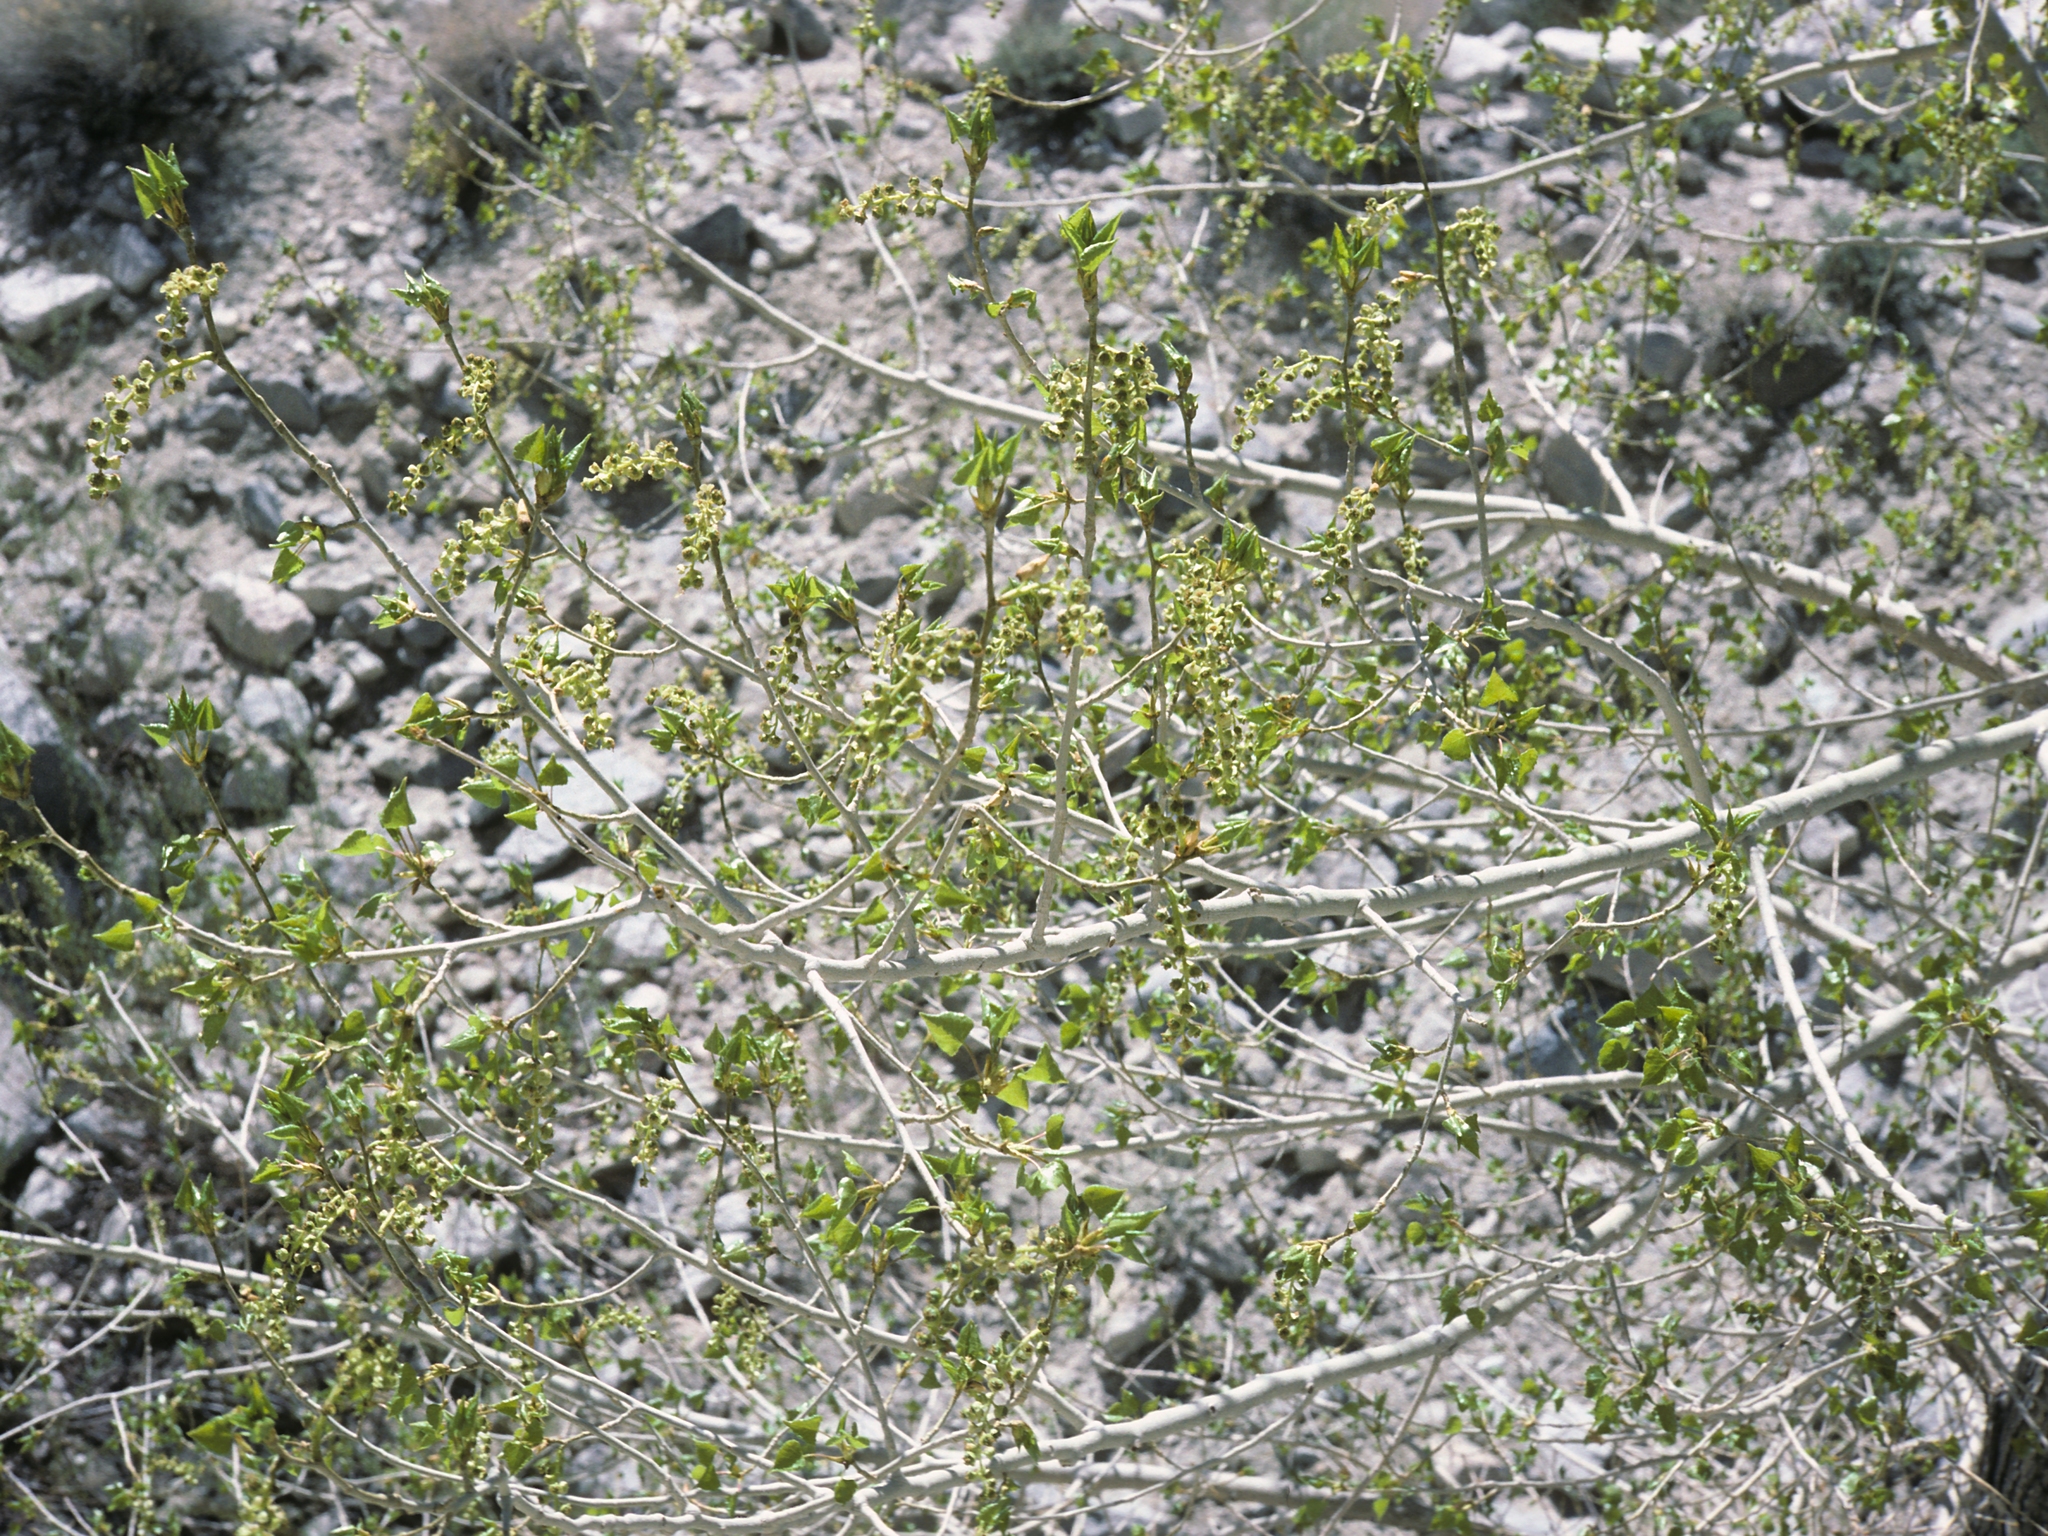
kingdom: Plantae
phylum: Tracheophyta
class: Magnoliopsida
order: Malpighiales
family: Salicaceae
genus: Populus
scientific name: Populus fremontii
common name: Fremont's cottonwood
